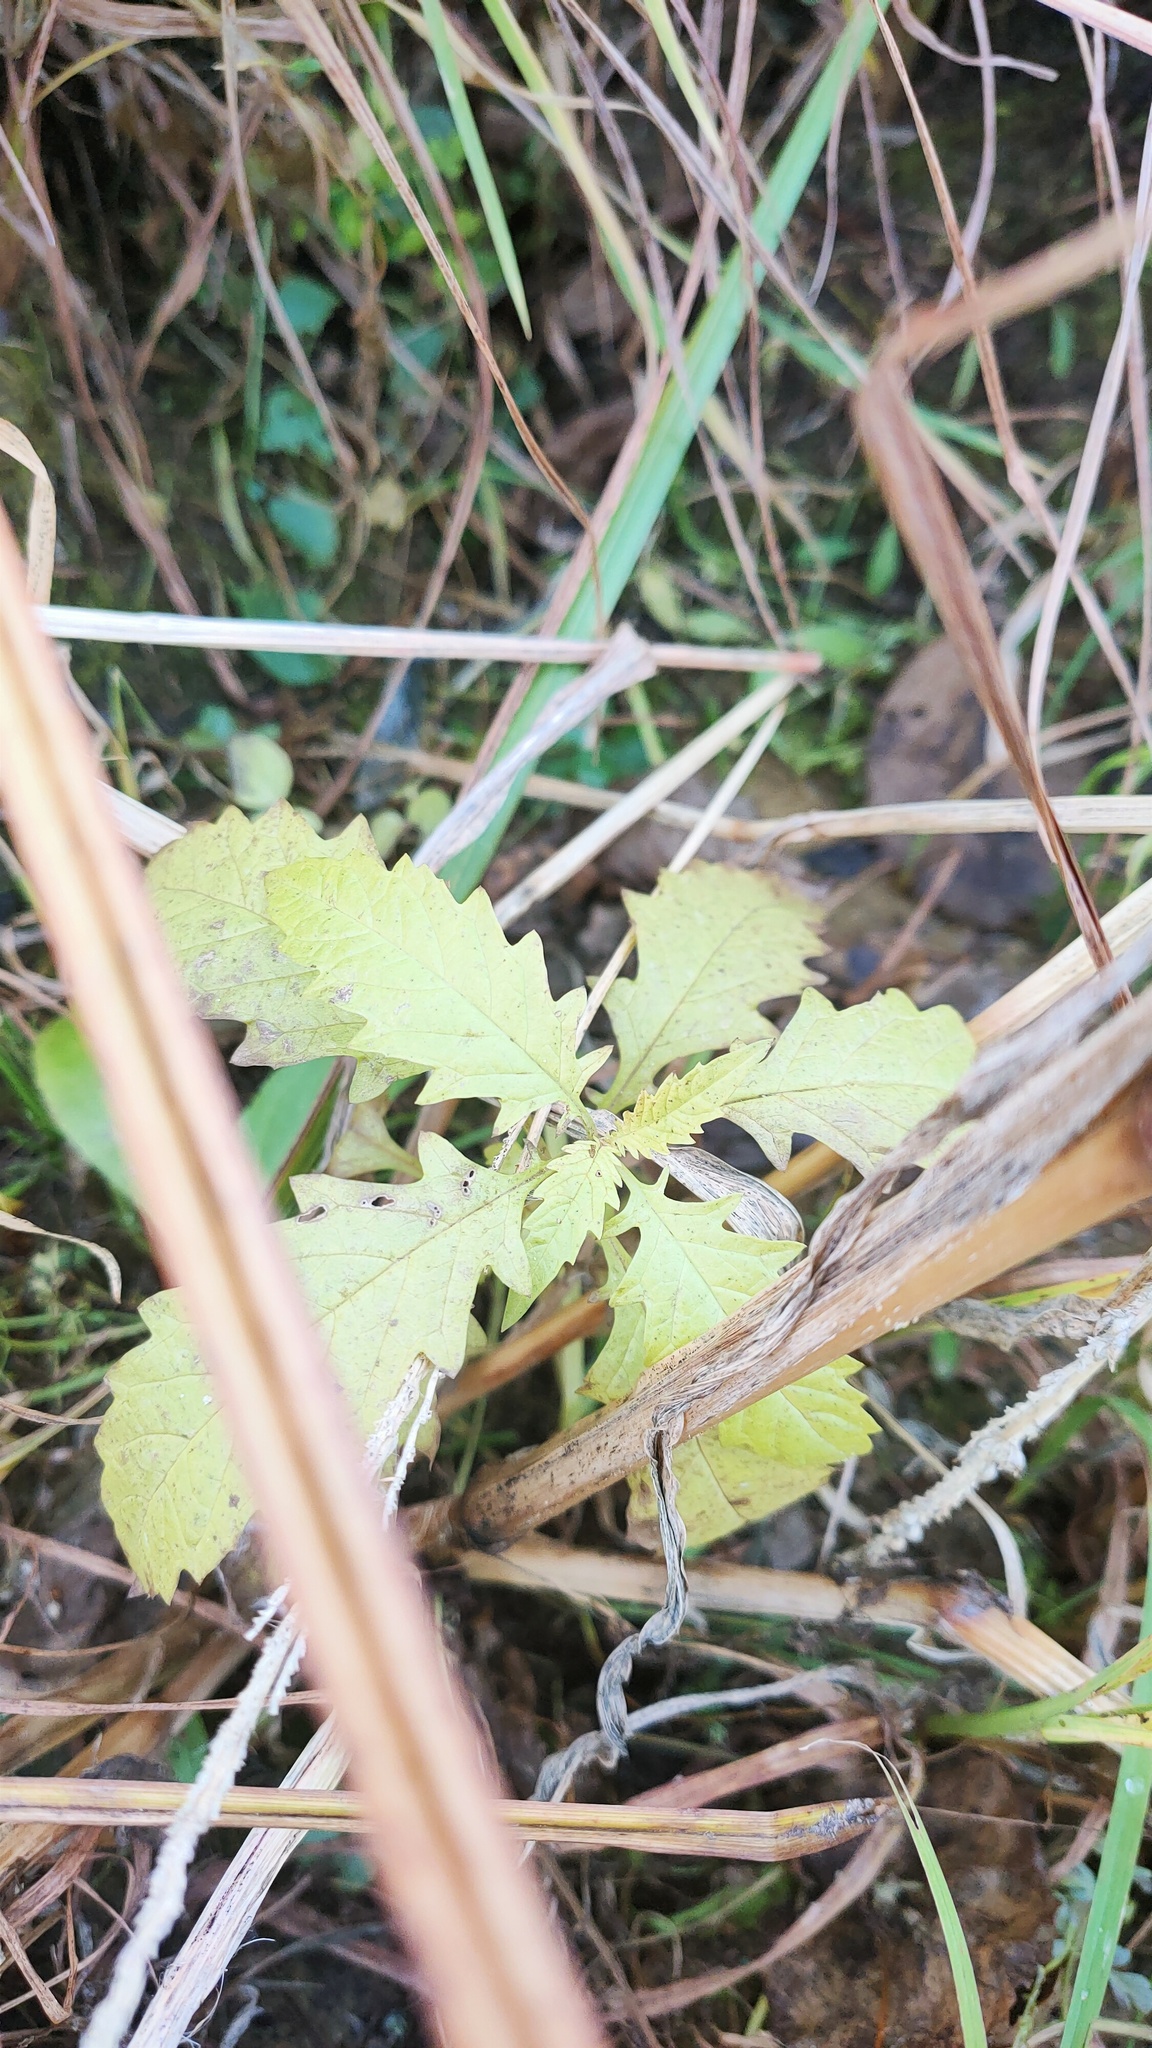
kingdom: Plantae
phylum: Tracheophyta
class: Magnoliopsida
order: Lamiales
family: Lamiaceae
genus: Lycopus
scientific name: Lycopus europaeus
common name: European bugleweed
